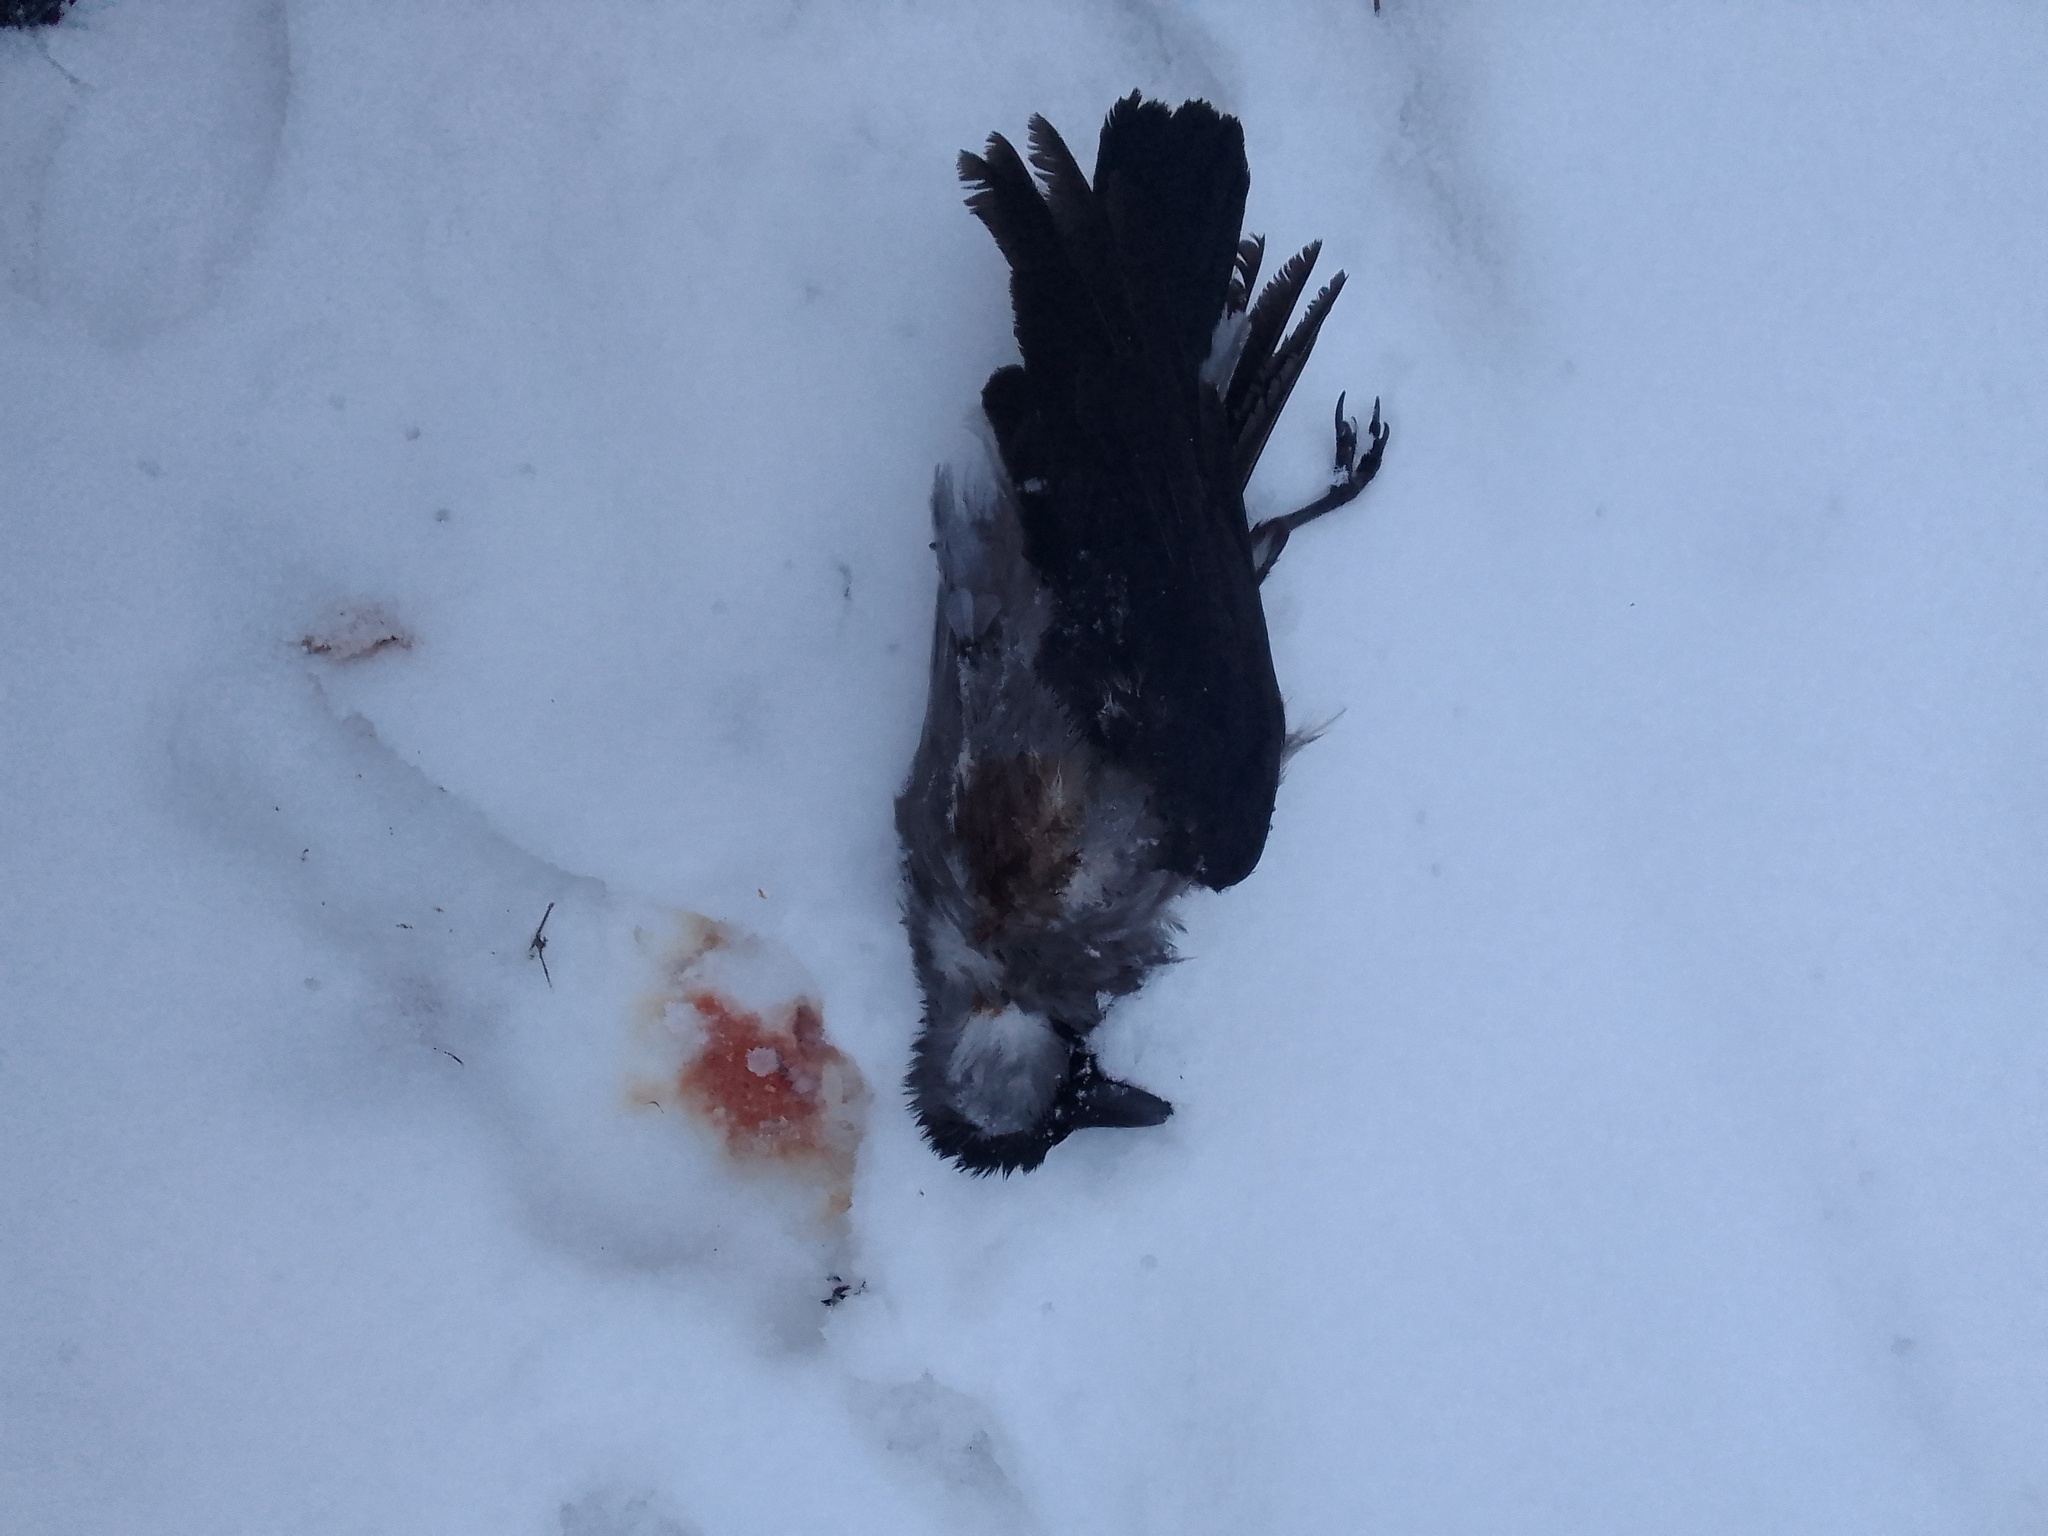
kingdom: Animalia
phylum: Chordata
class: Aves
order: Passeriformes
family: Corvidae
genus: Corvus
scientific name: Corvus cornix
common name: Hooded crow
